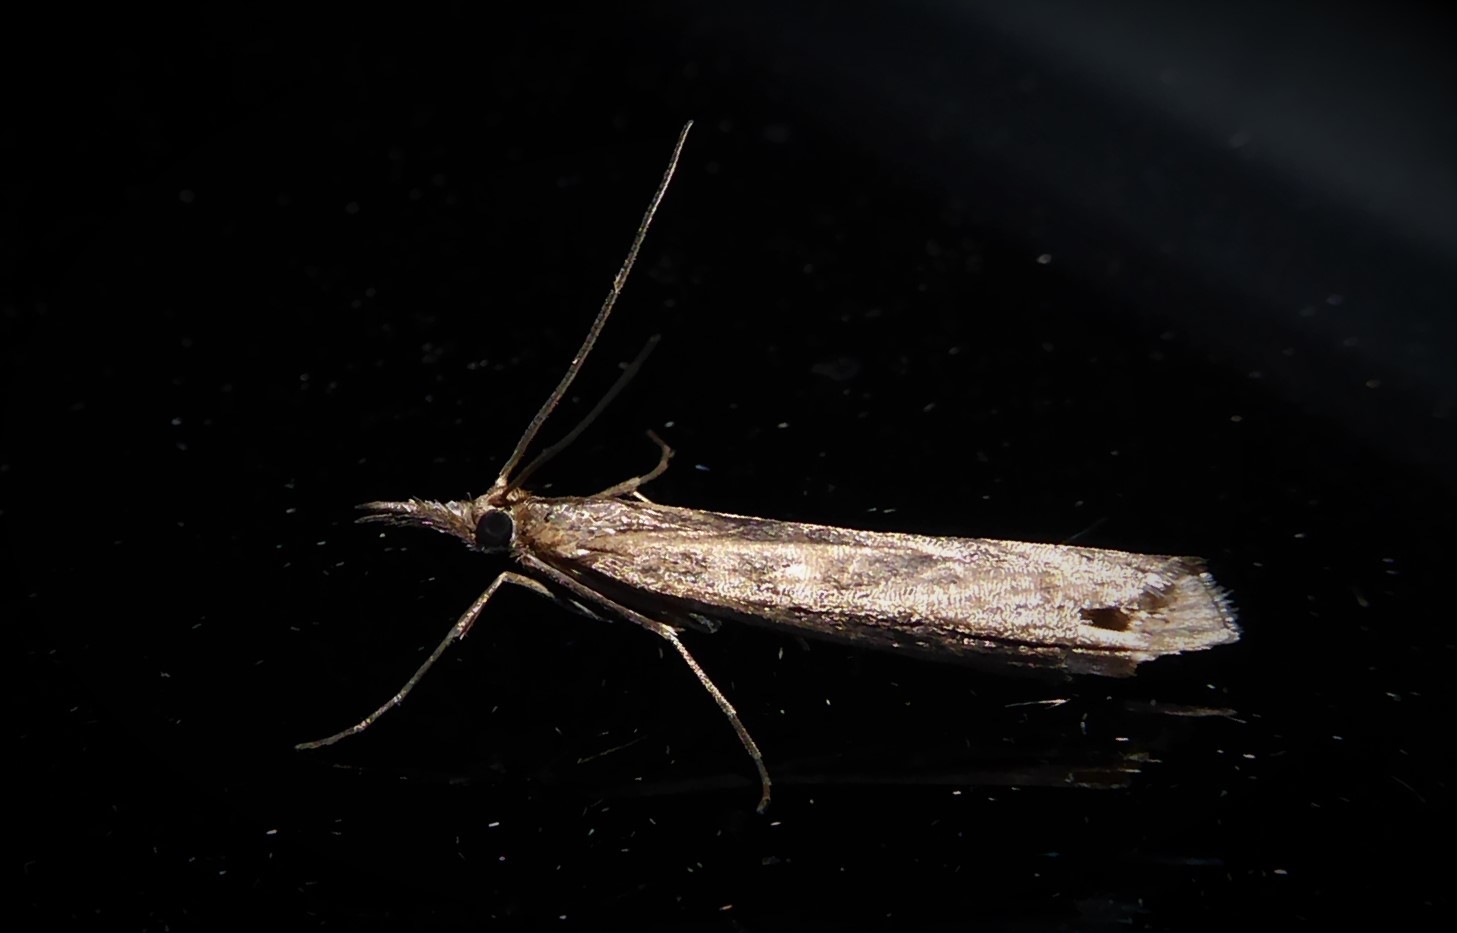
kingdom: Animalia
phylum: Arthropoda
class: Insecta
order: Lepidoptera
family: Crambidae
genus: Orocrambus
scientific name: Orocrambus cyclopicus
